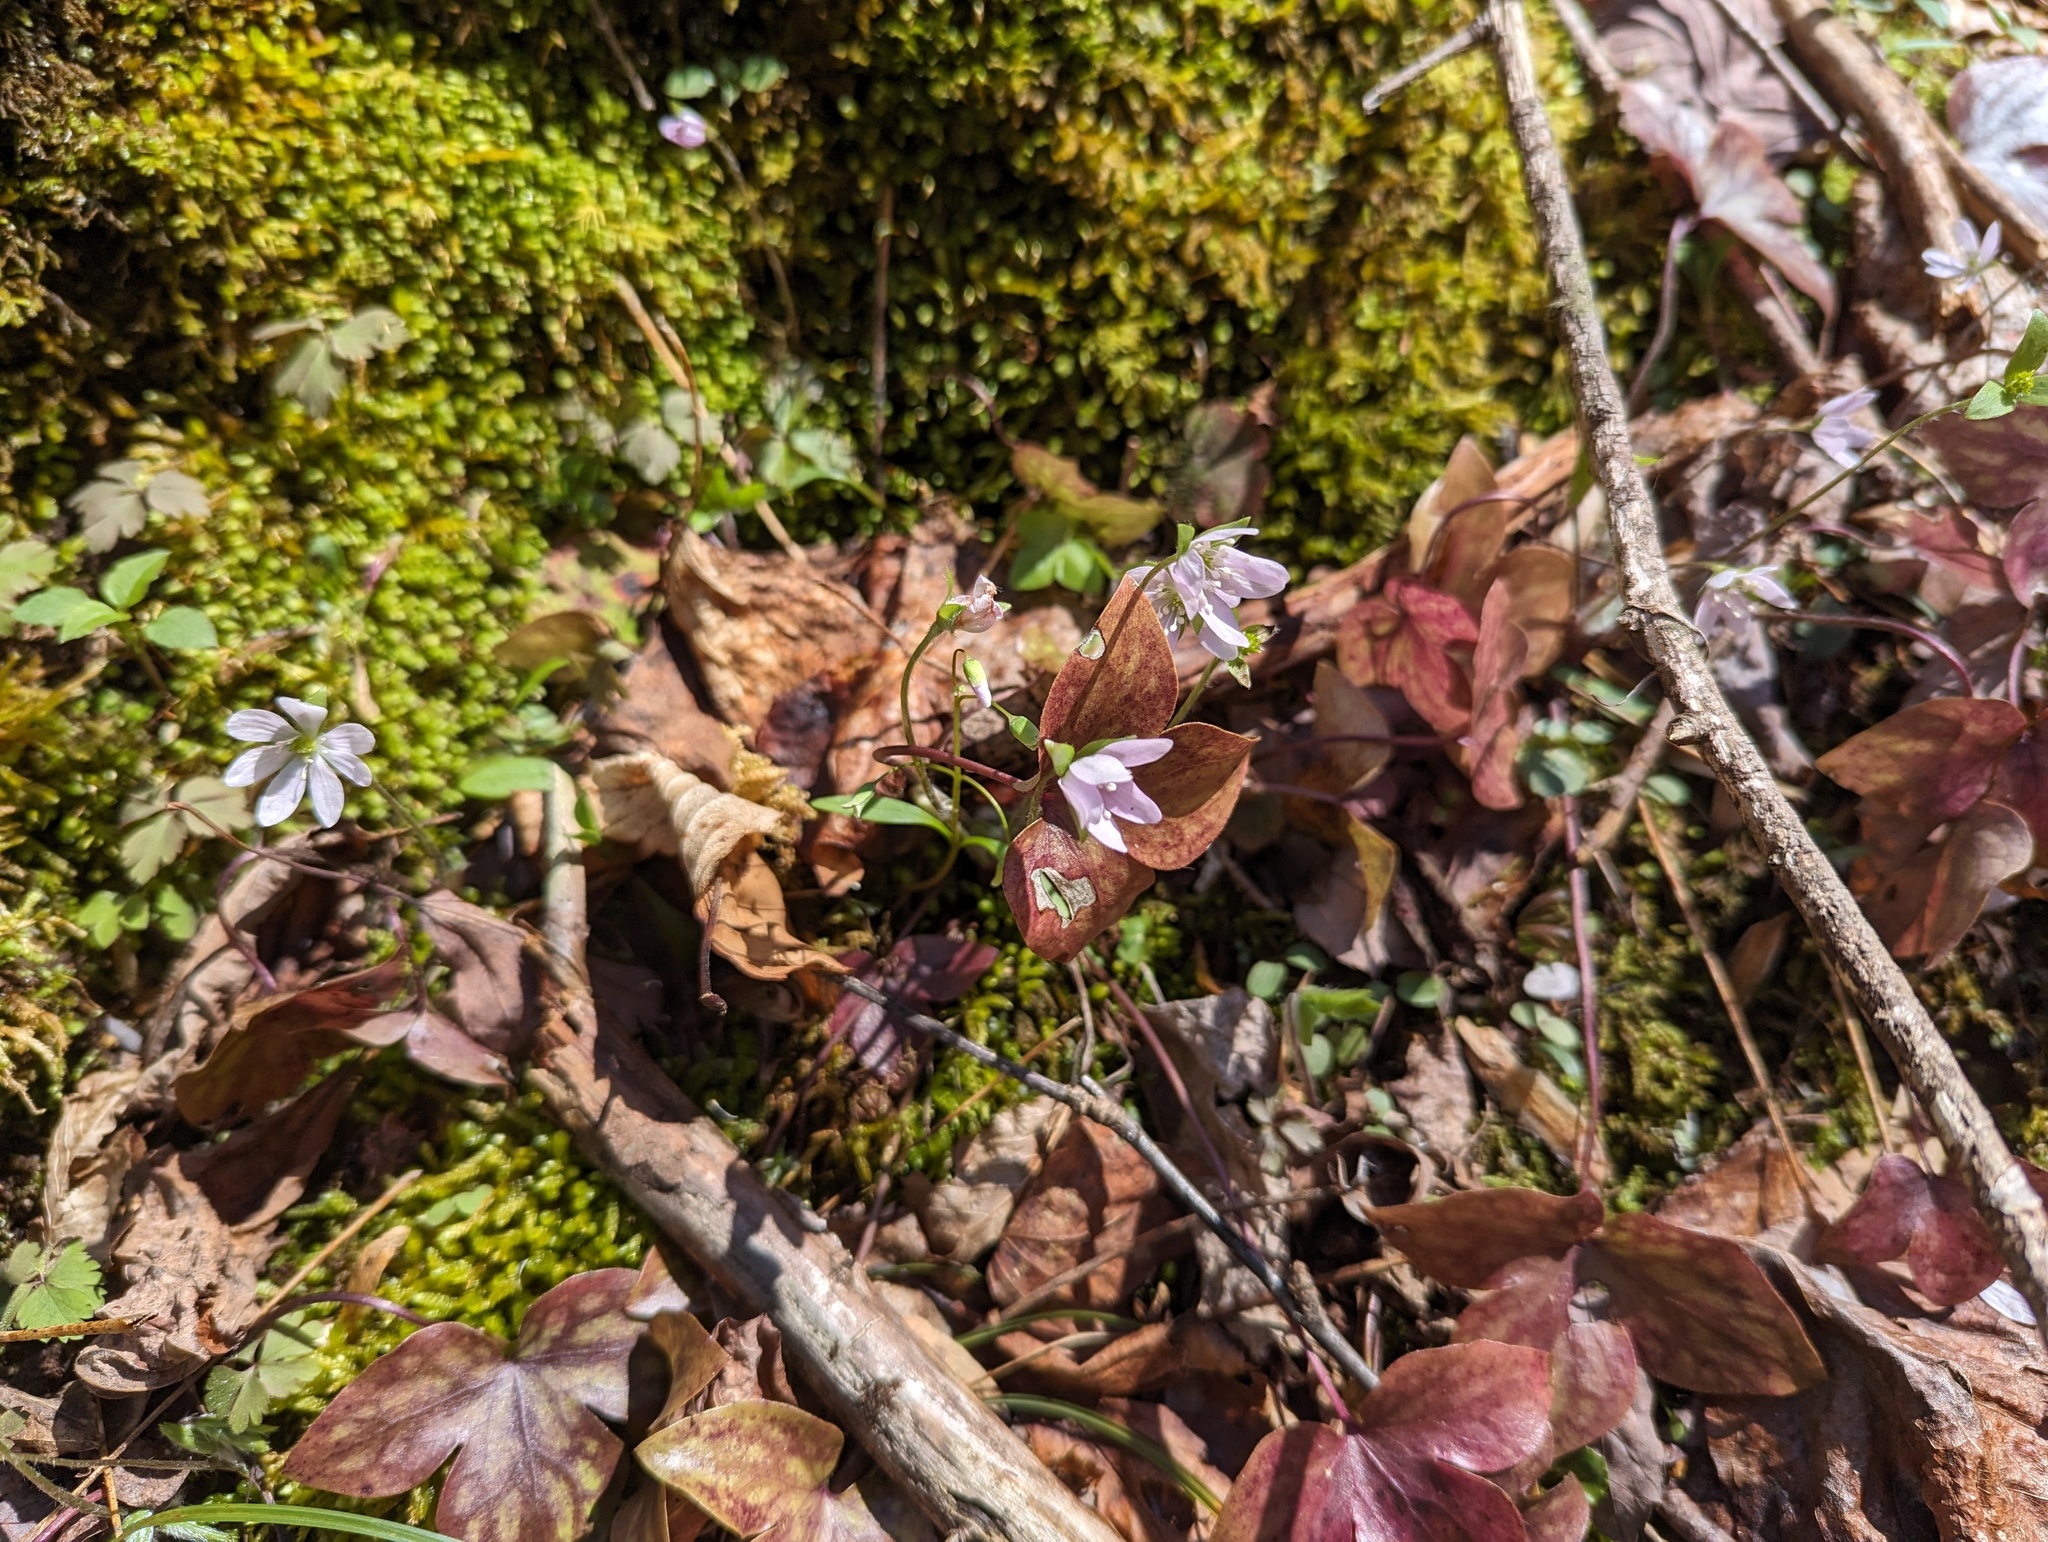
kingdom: Plantae
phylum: Tracheophyta
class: Magnoliopsida
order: Ranunculales
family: Ranunculaceae
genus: Hepatica
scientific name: Hepatica acutiloba
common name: Sharp-lobed hepatica
